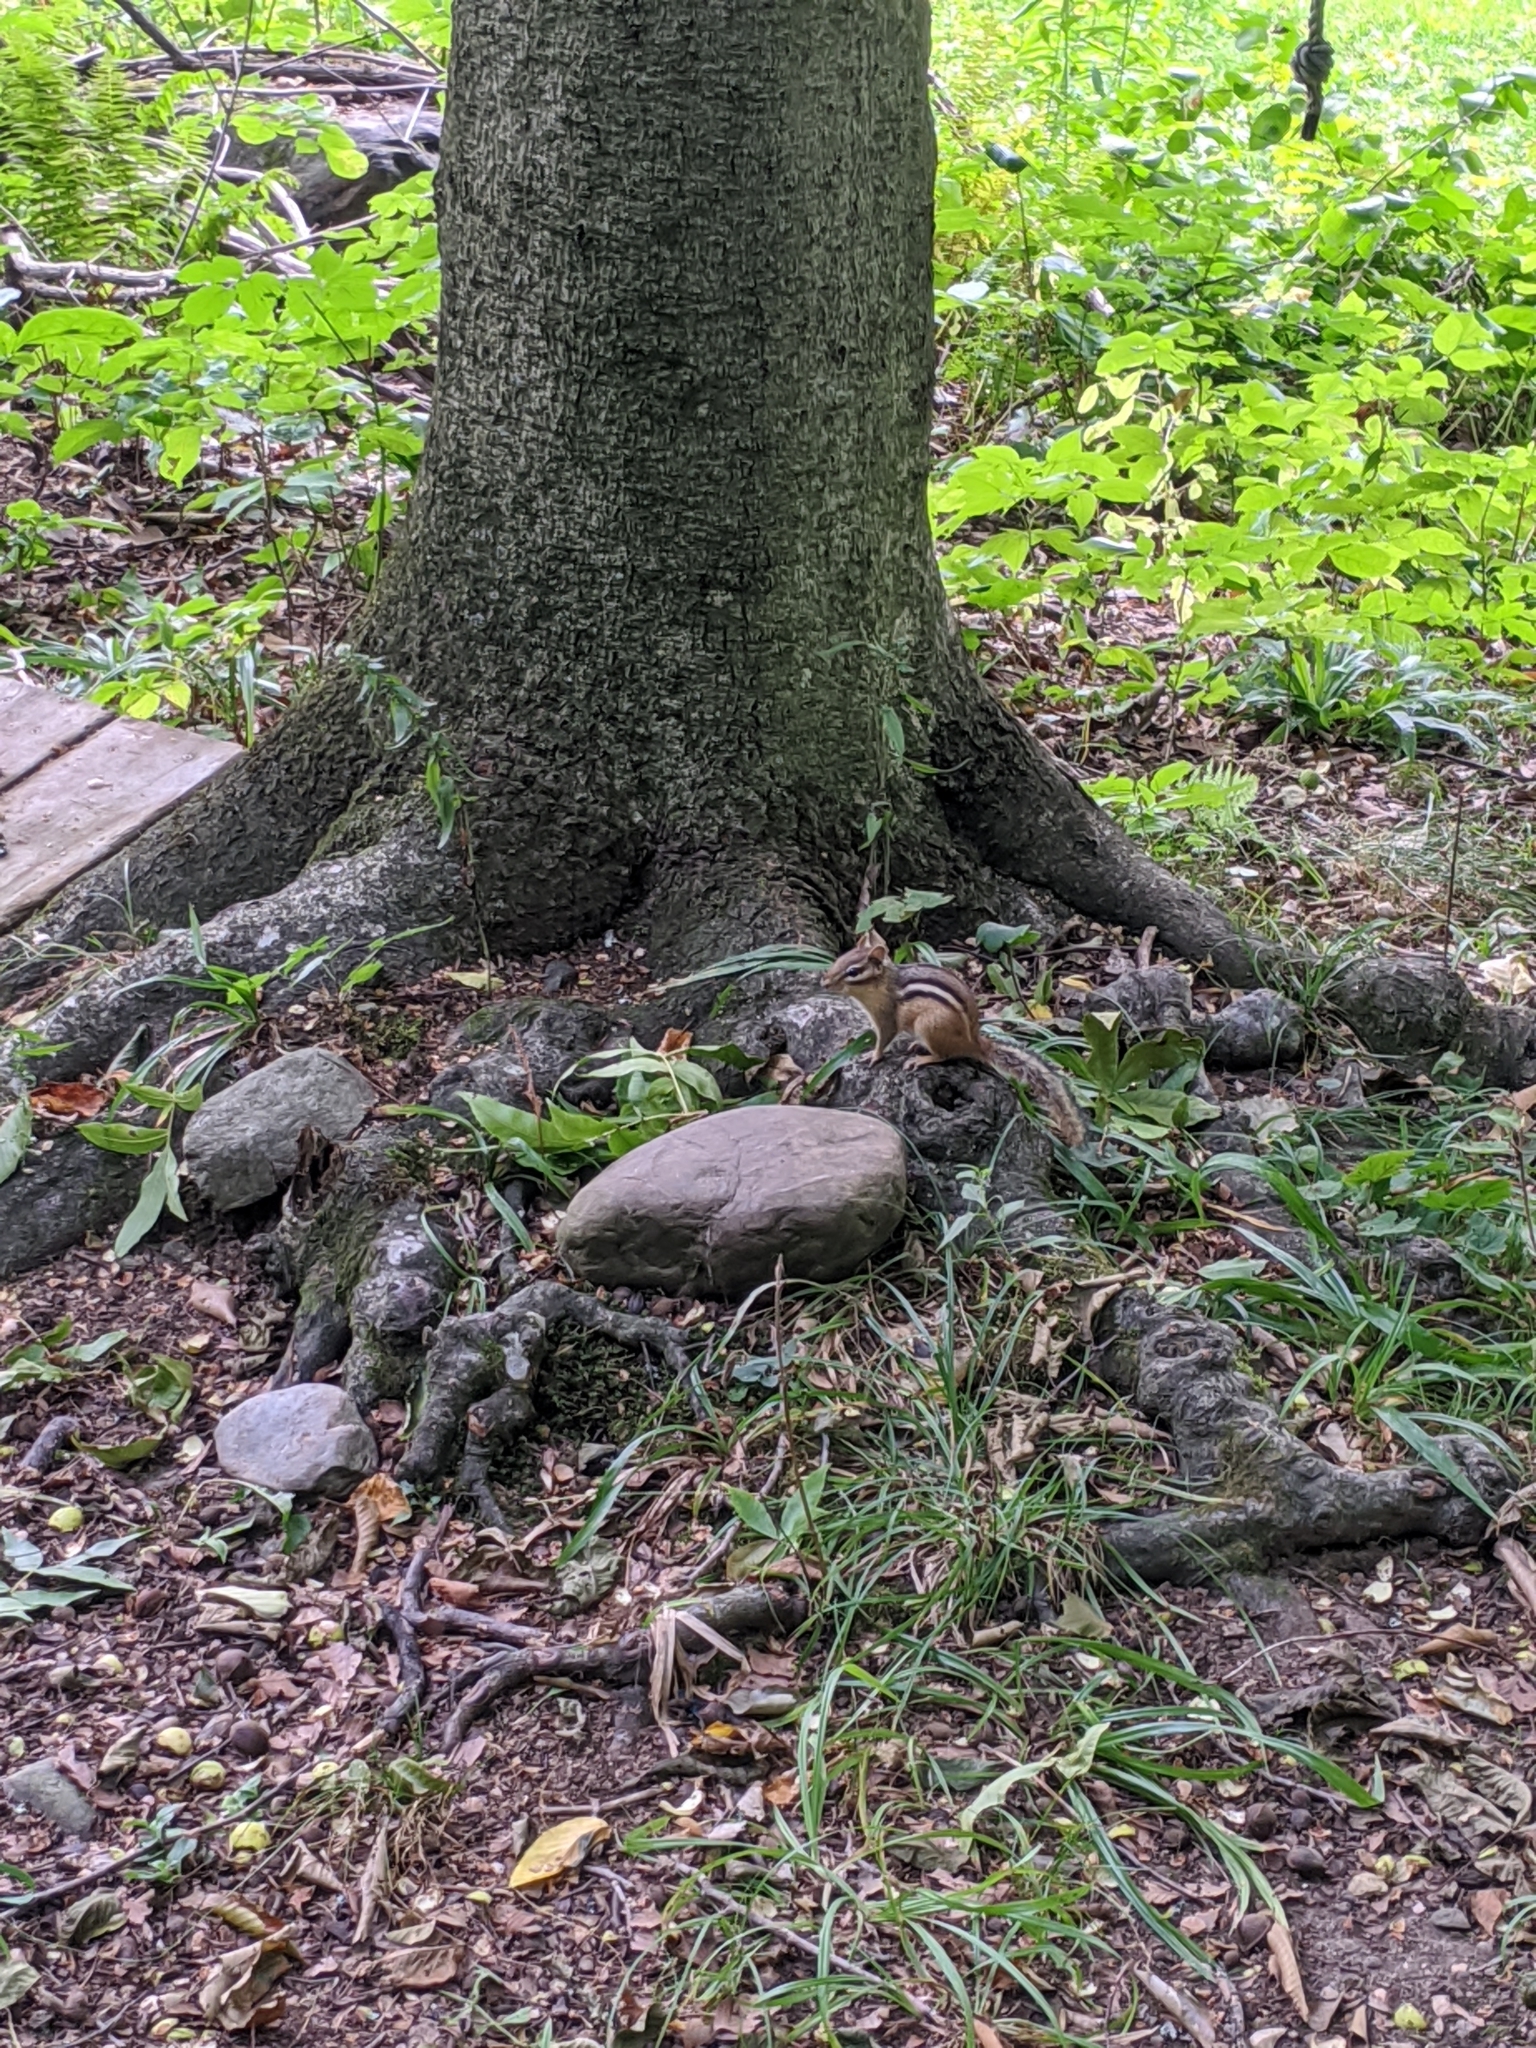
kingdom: Animalia
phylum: Chordata
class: Mammalia
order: Rodentia
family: Sciuridae
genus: Tamias
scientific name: Tamias striatus
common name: Eastern chipmunk
